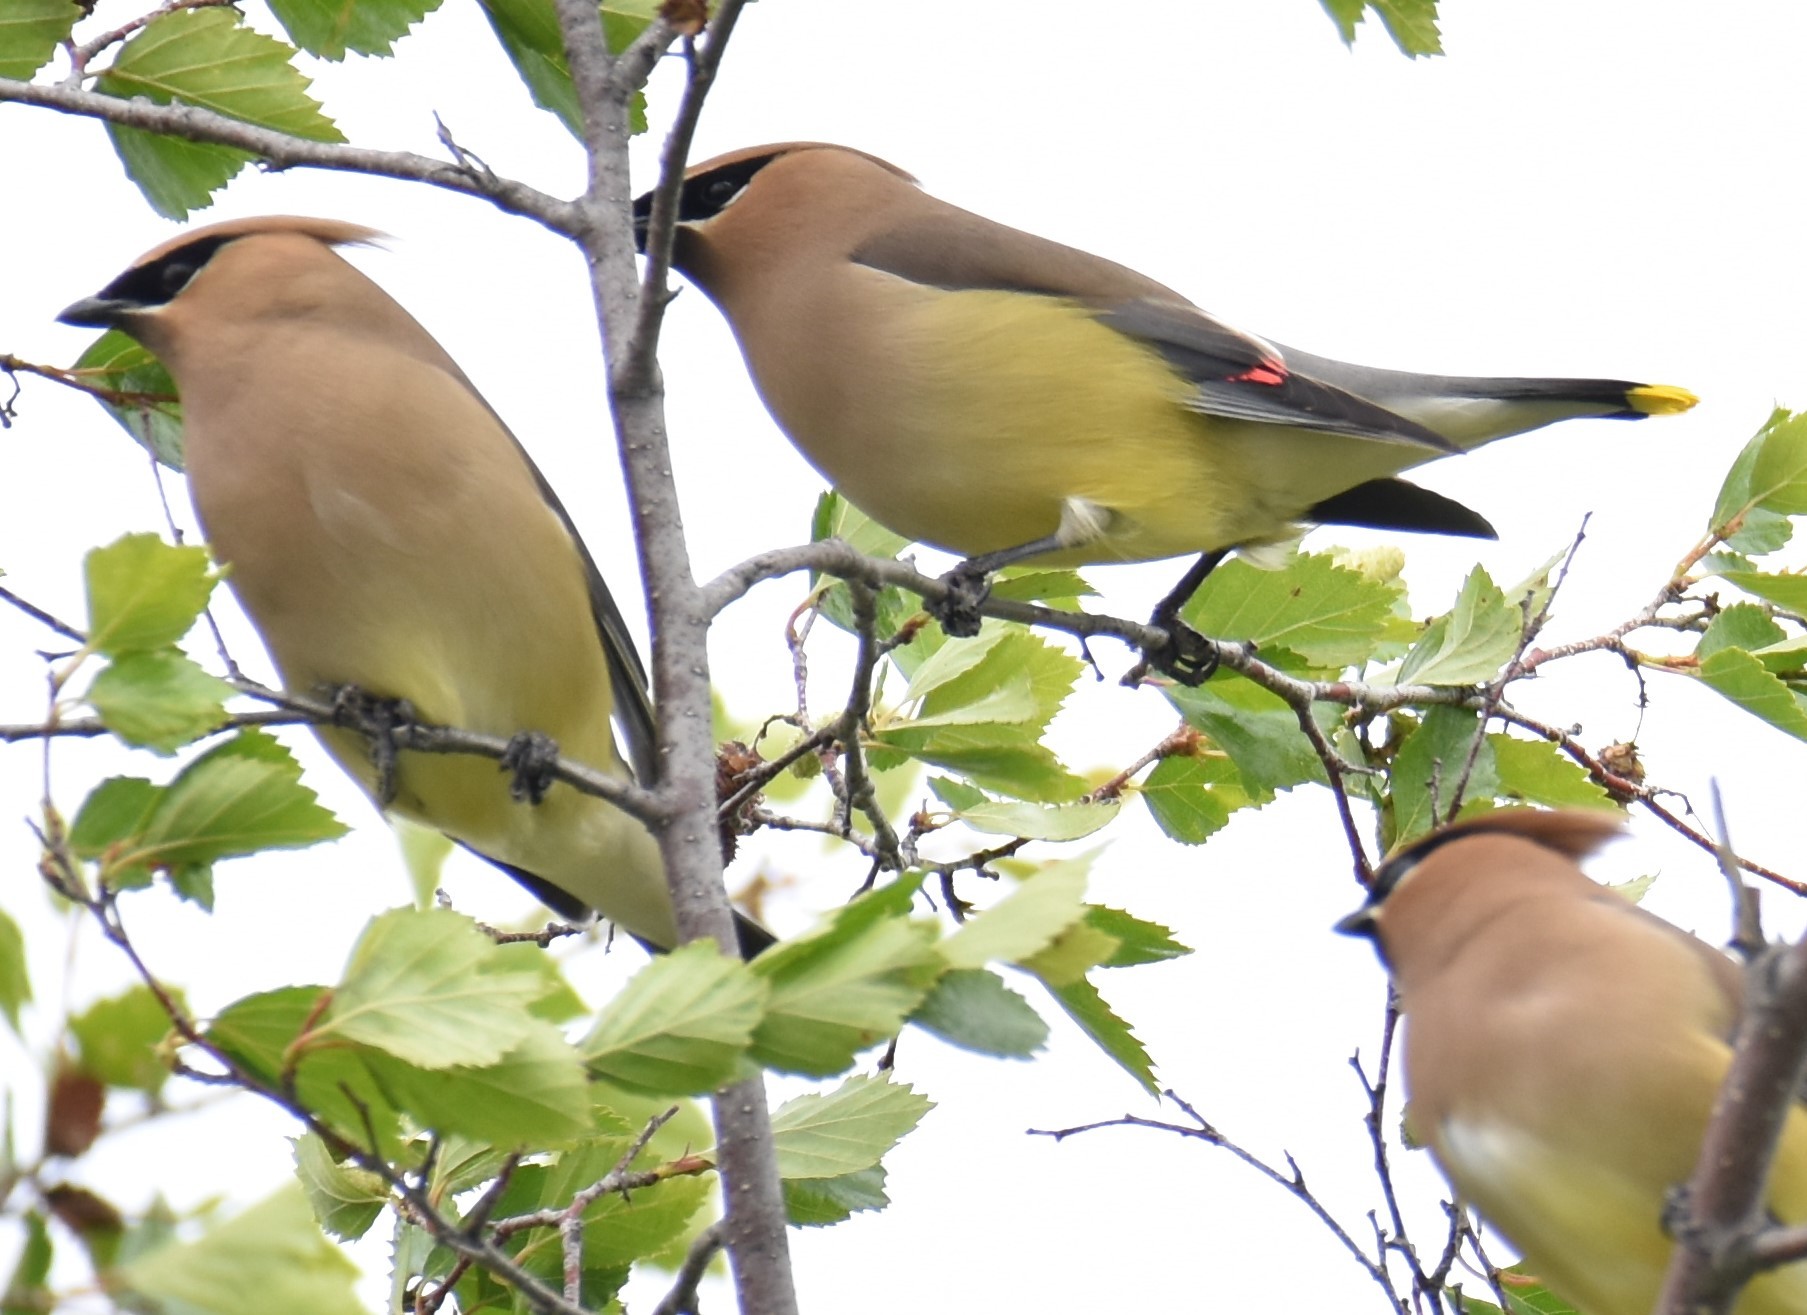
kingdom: Animalia
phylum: Chordata
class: Aves
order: Passeriformes
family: Bombycillidae
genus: Bombycilla
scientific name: Bombycilla cedrorum
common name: Cedar waxwing
